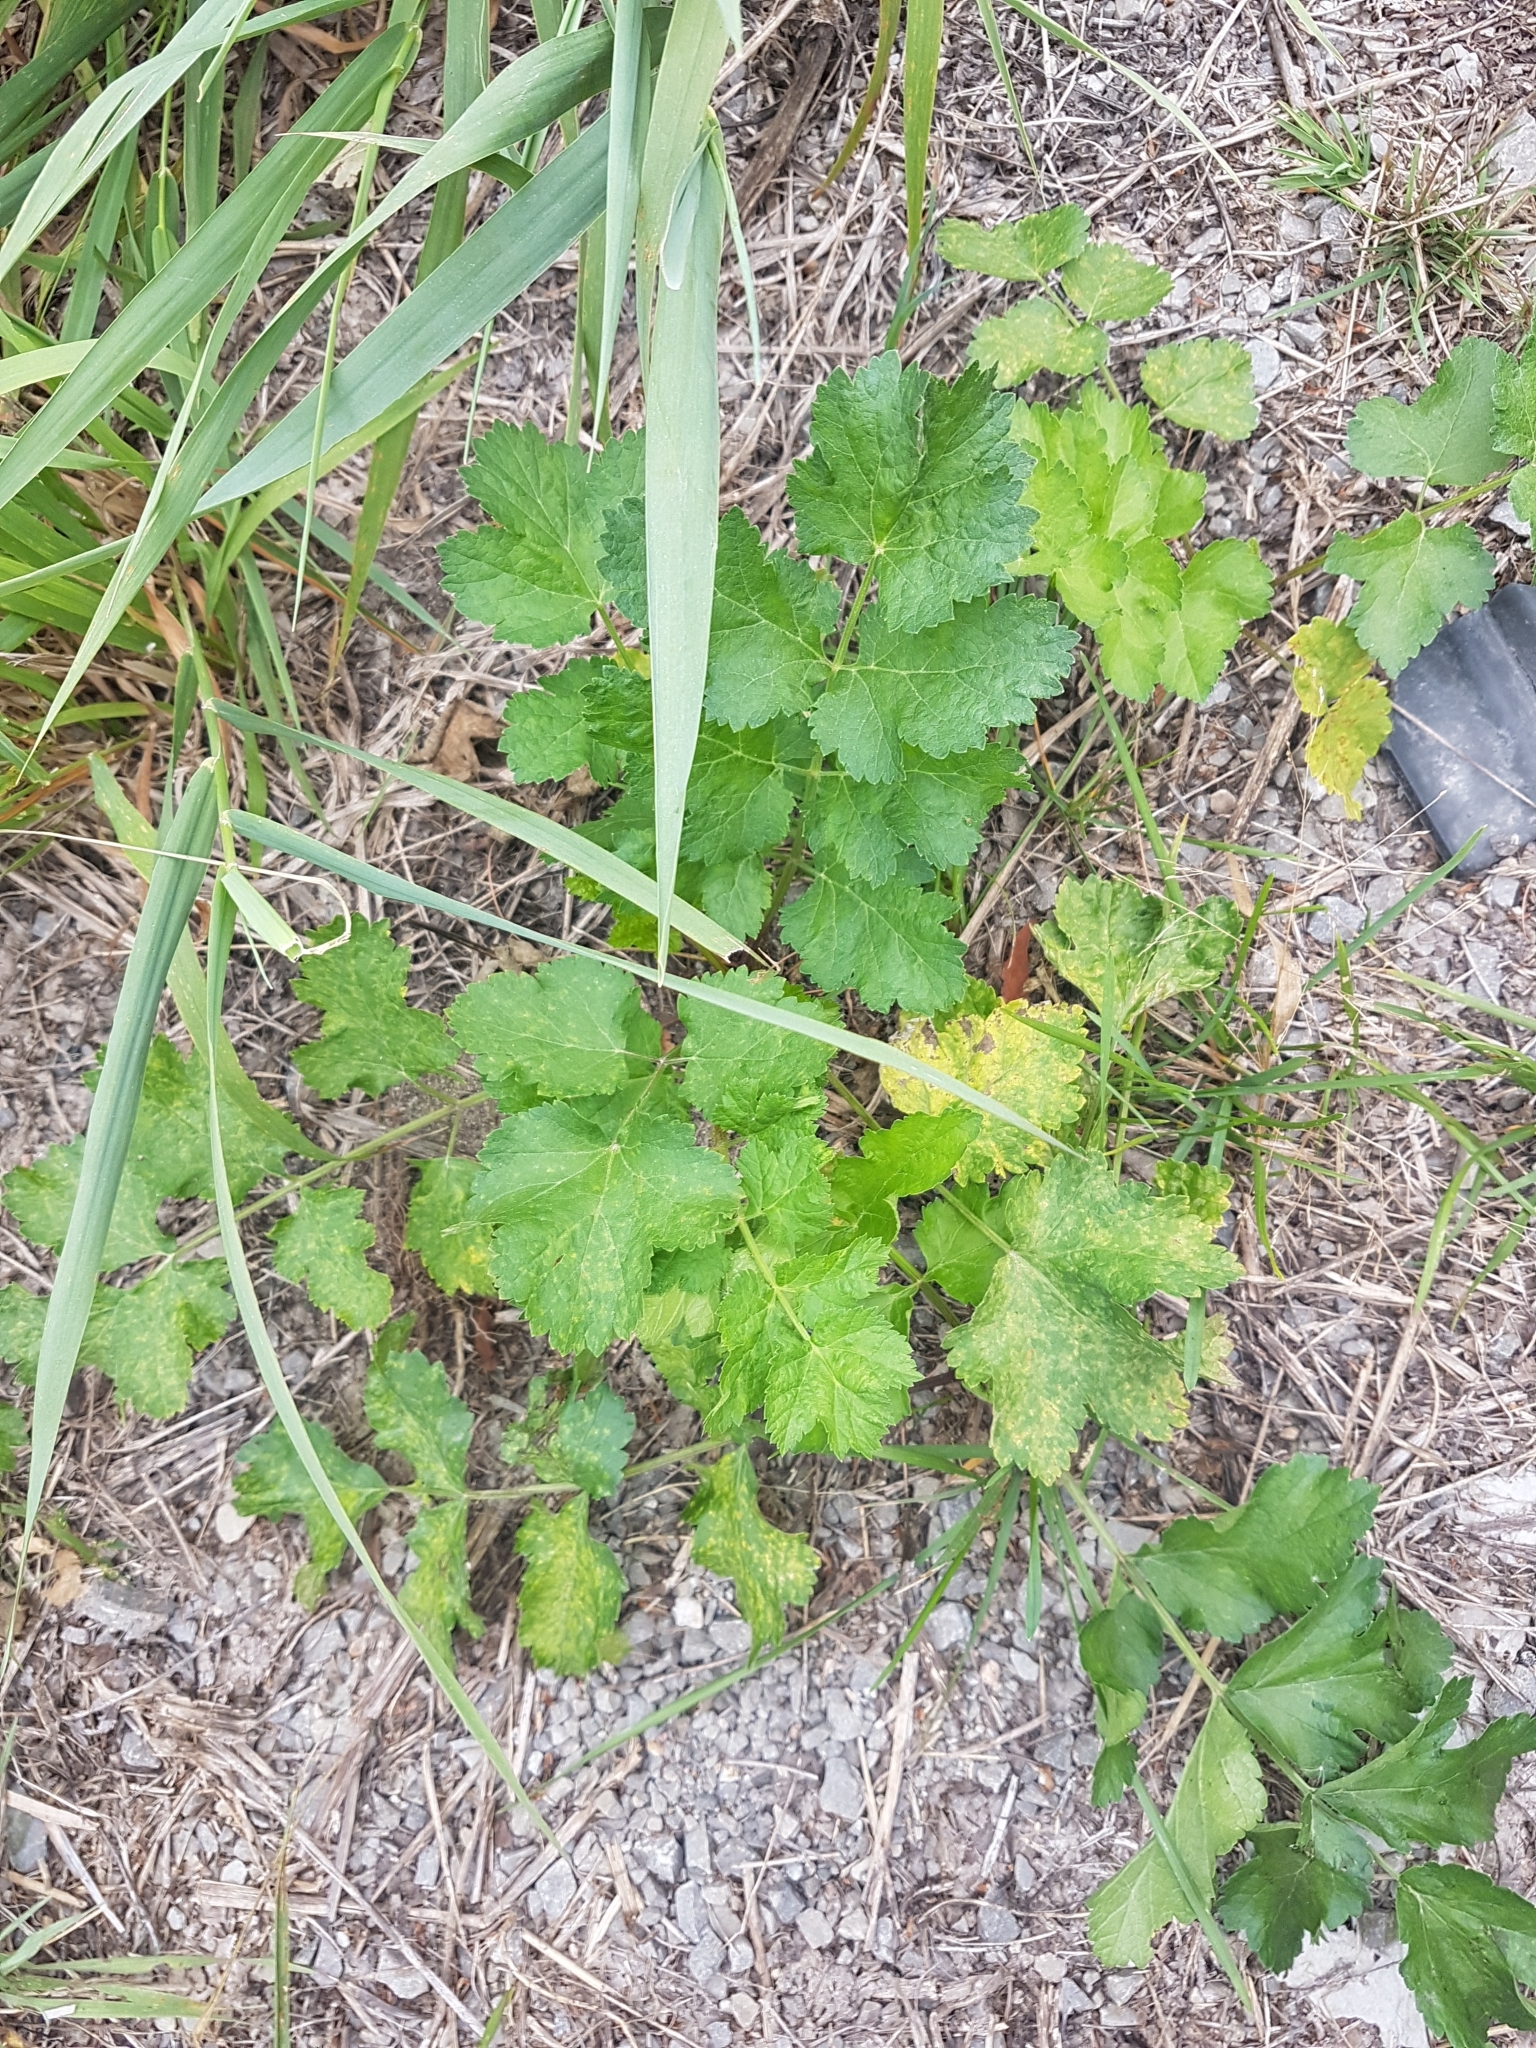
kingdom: Plantae
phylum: Tracheophyta
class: Magnoliopsida
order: Apiales
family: Apiaceae
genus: Pastinaca
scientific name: Pastinaca sativa
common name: Wild parsnip
